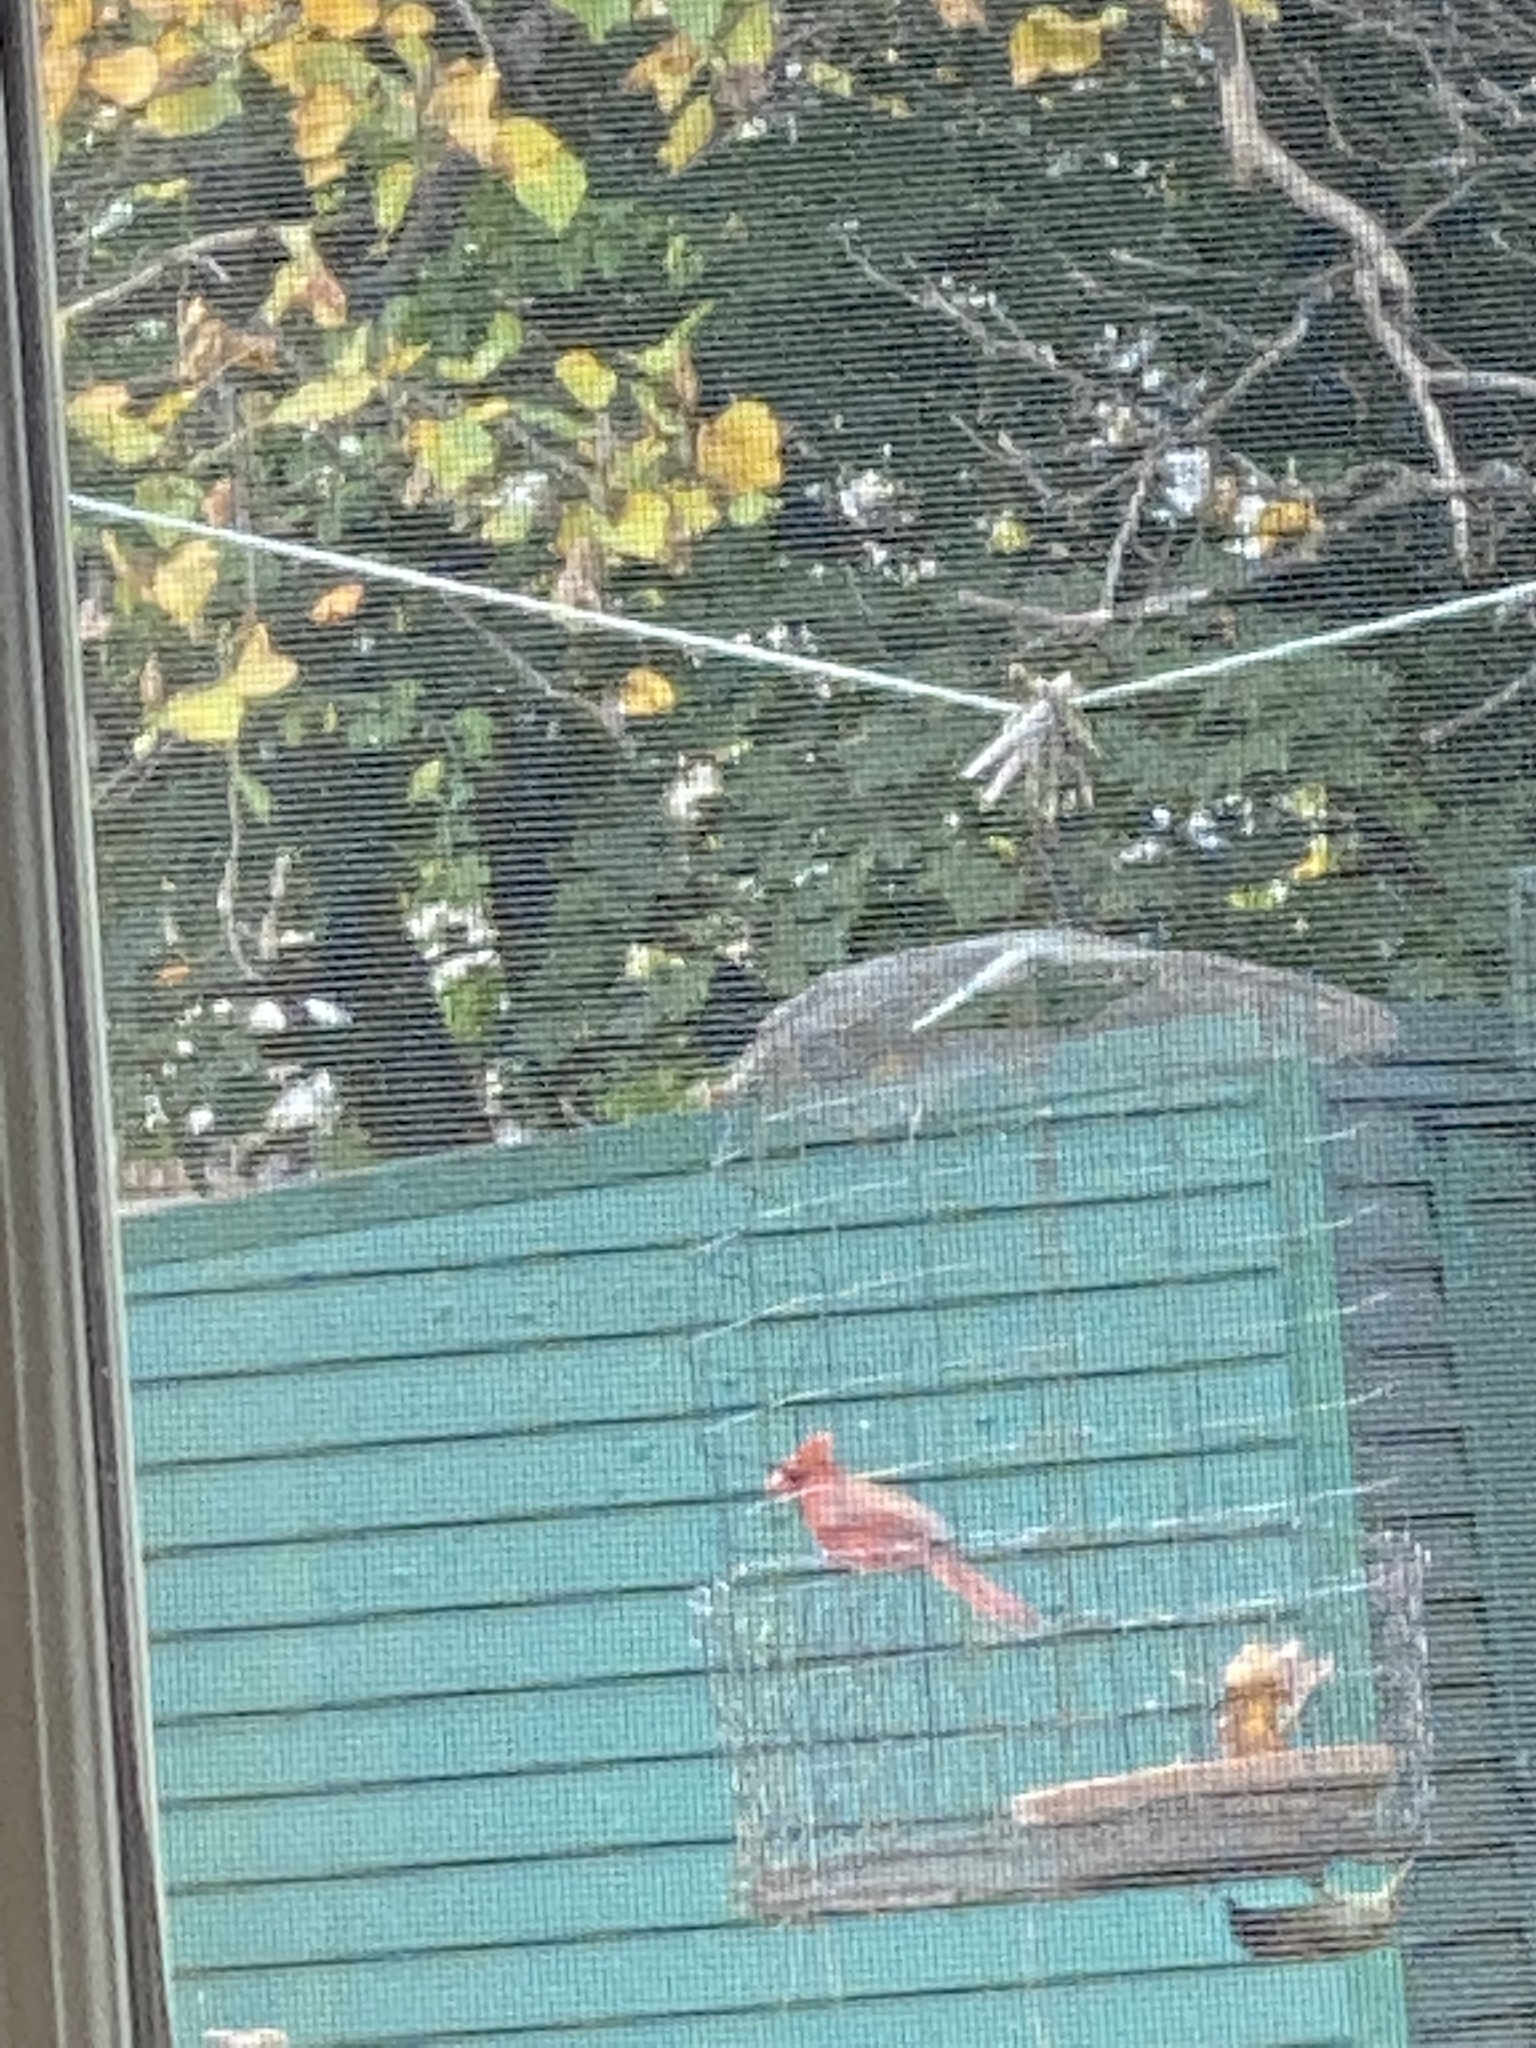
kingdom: Animalia
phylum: Chordata
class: Aves
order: Passeriformes
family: Cardinalidae
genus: Cardinalis
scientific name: Cardinalis cardinalis
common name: Northern cardinal
